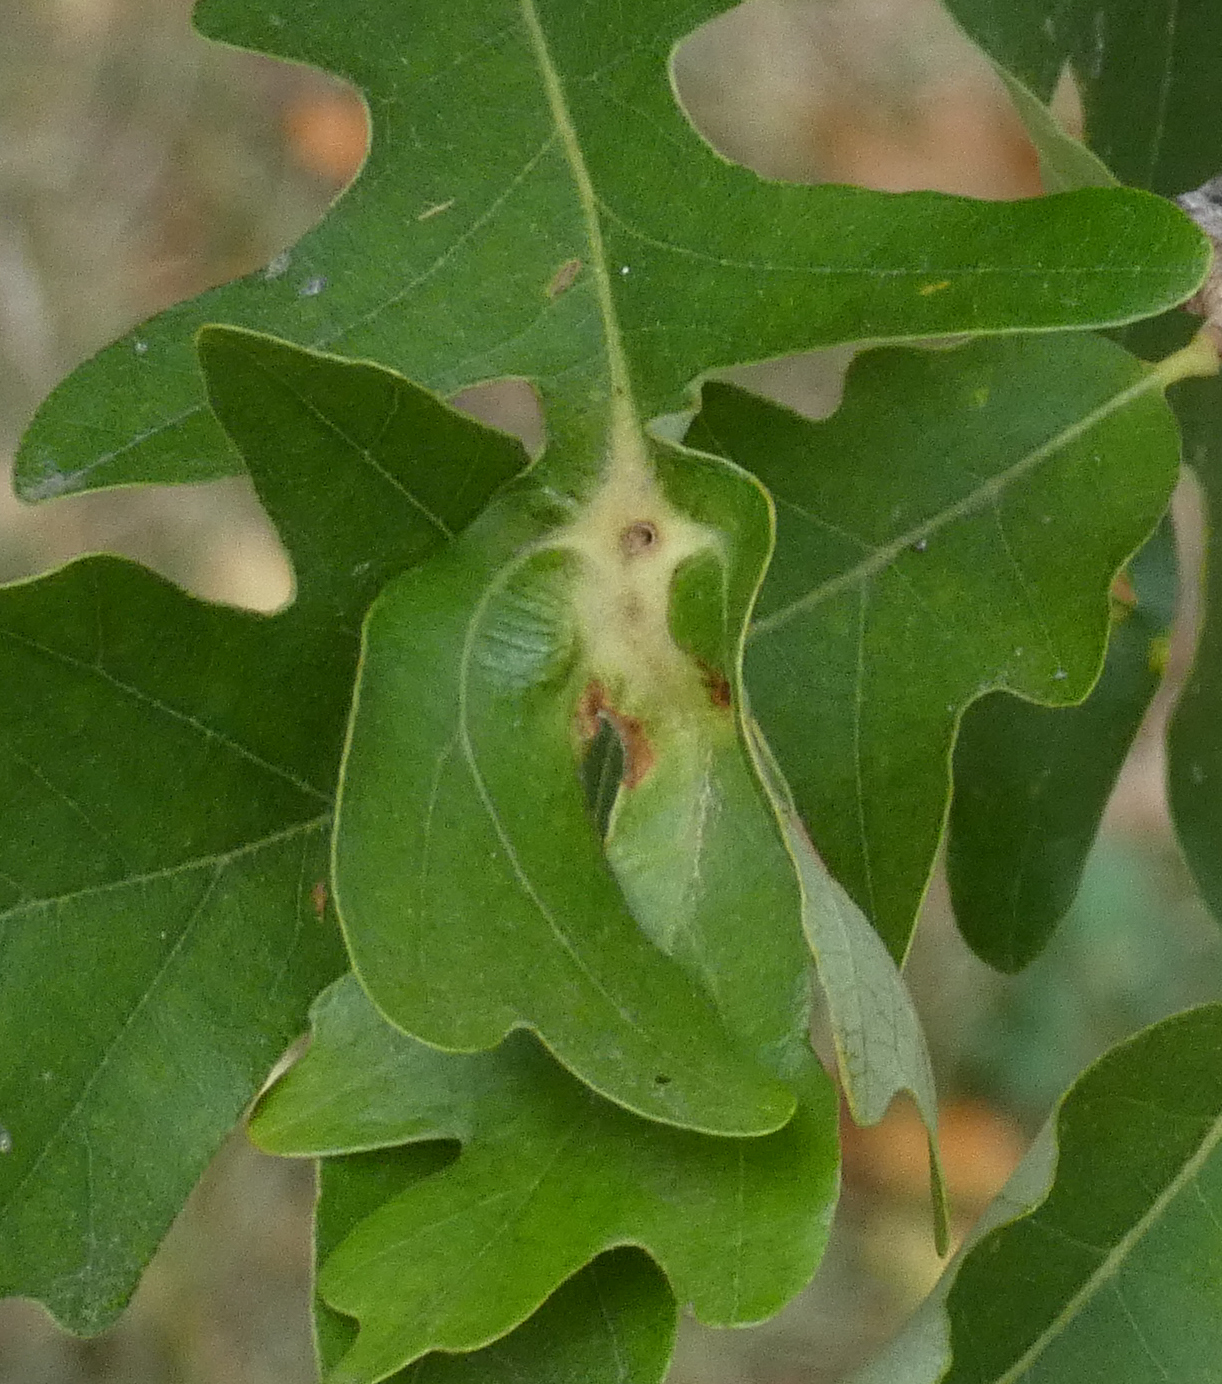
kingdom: Animalia
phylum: Arthropoda
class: Insecta
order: Hymenoptera
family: Cynipidae
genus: Bassettia
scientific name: Bassettia flavipes
